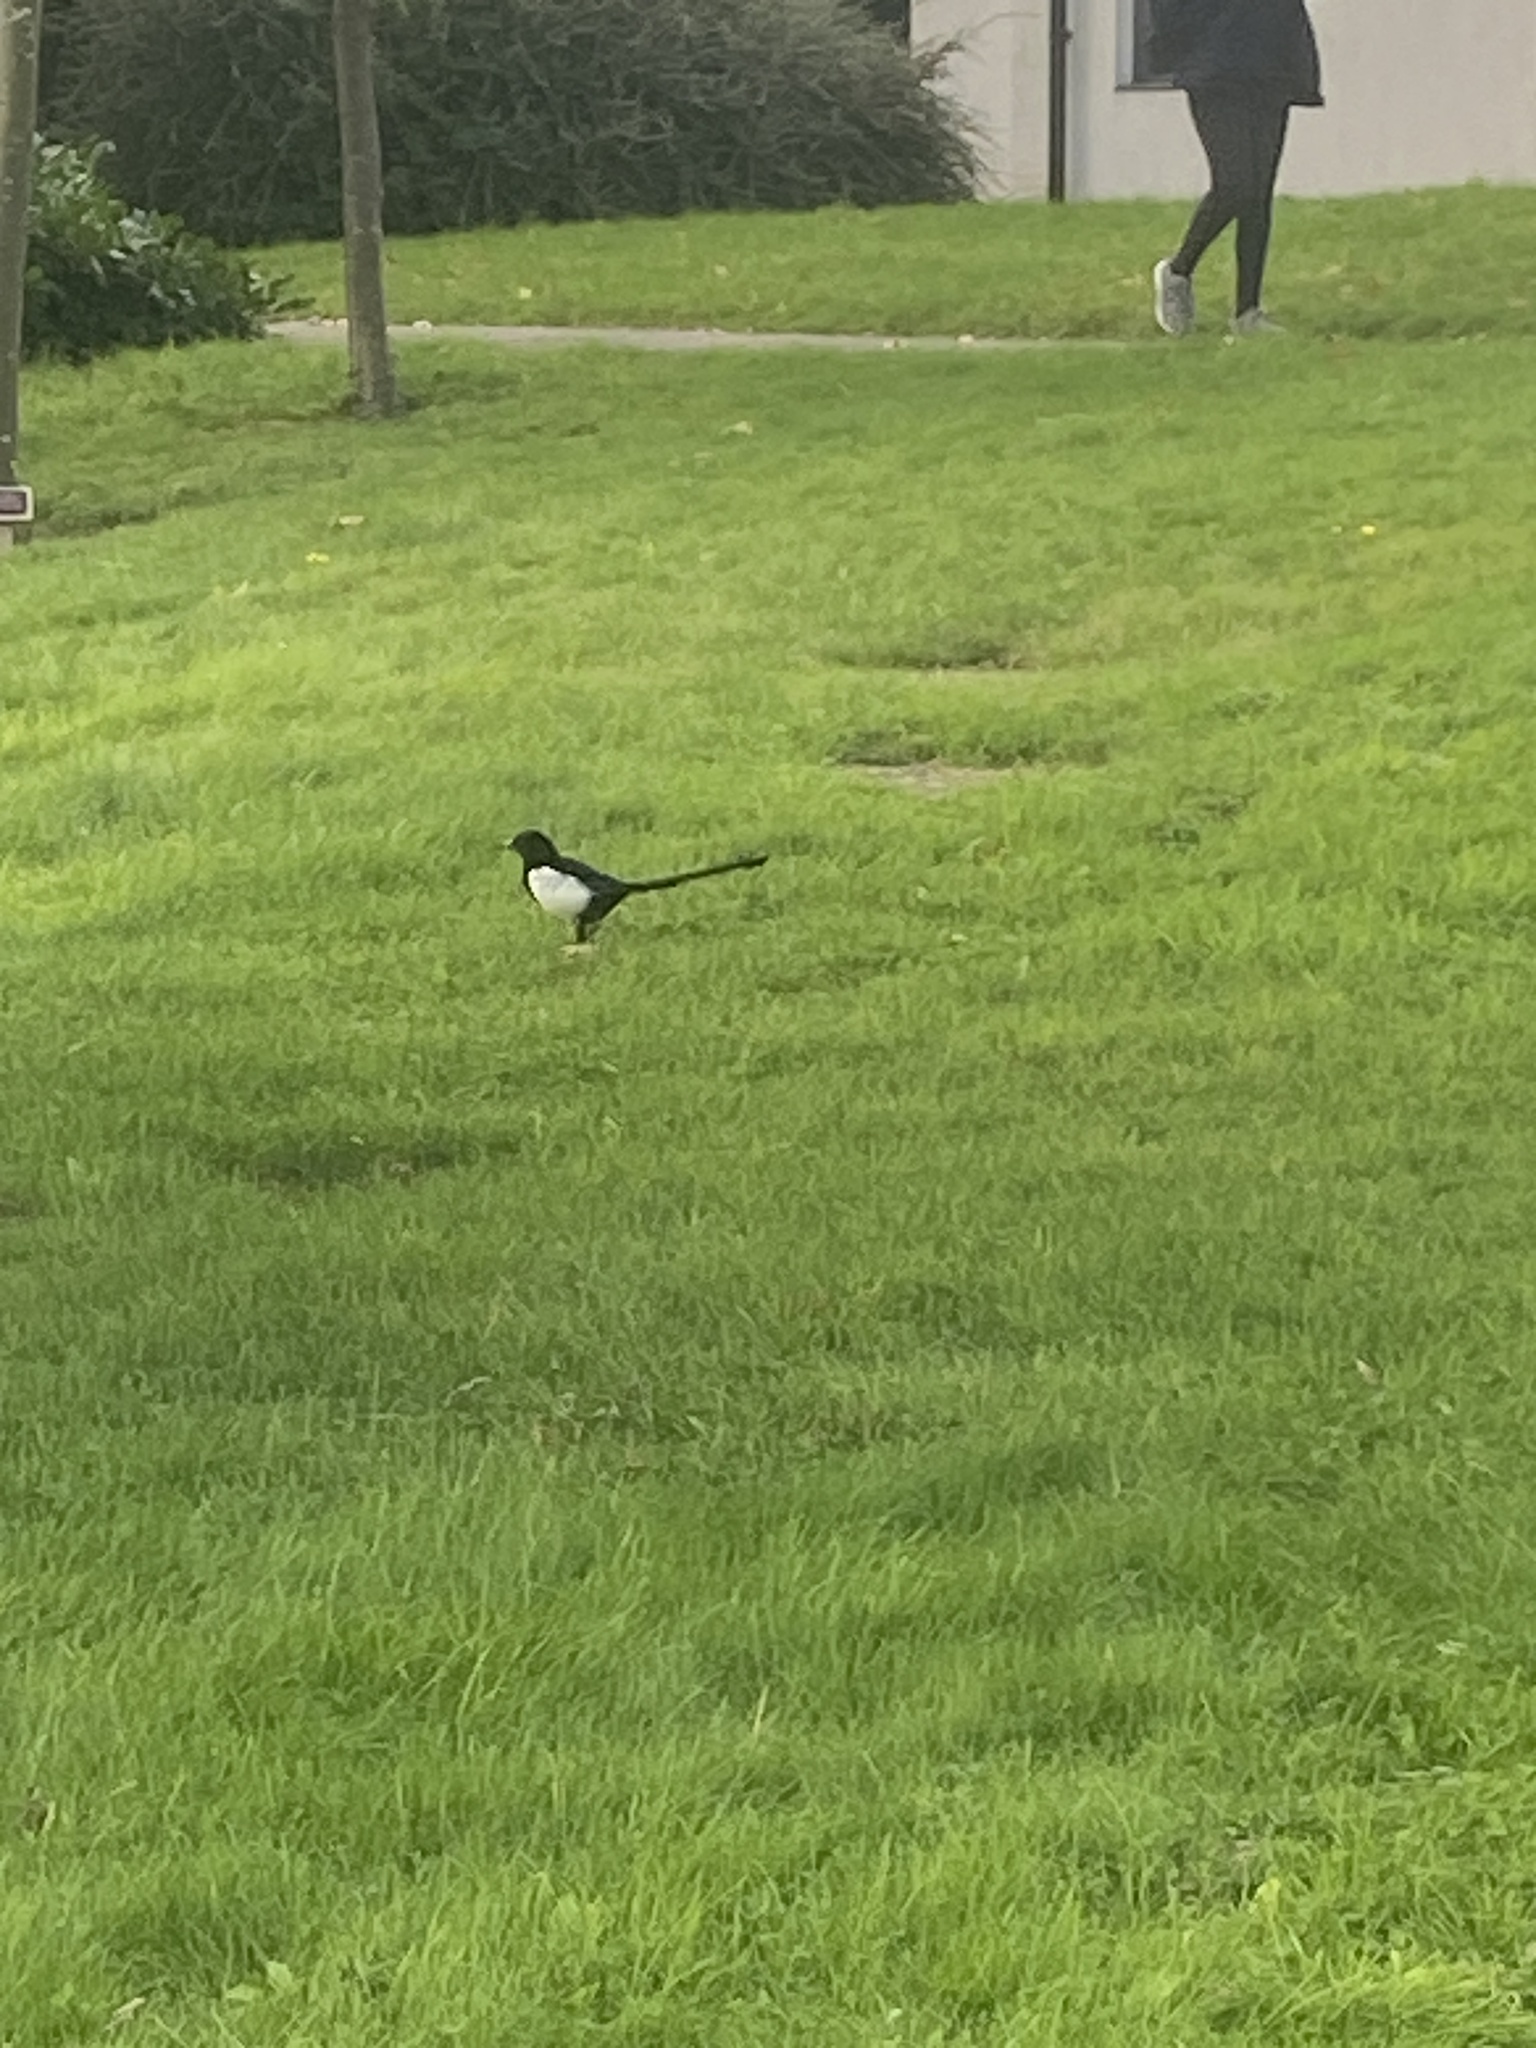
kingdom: Animalia
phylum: Chordata
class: Aves
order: Passeriformes
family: Corvidae
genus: Pica
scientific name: Pica pica
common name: Eurasian magpie
